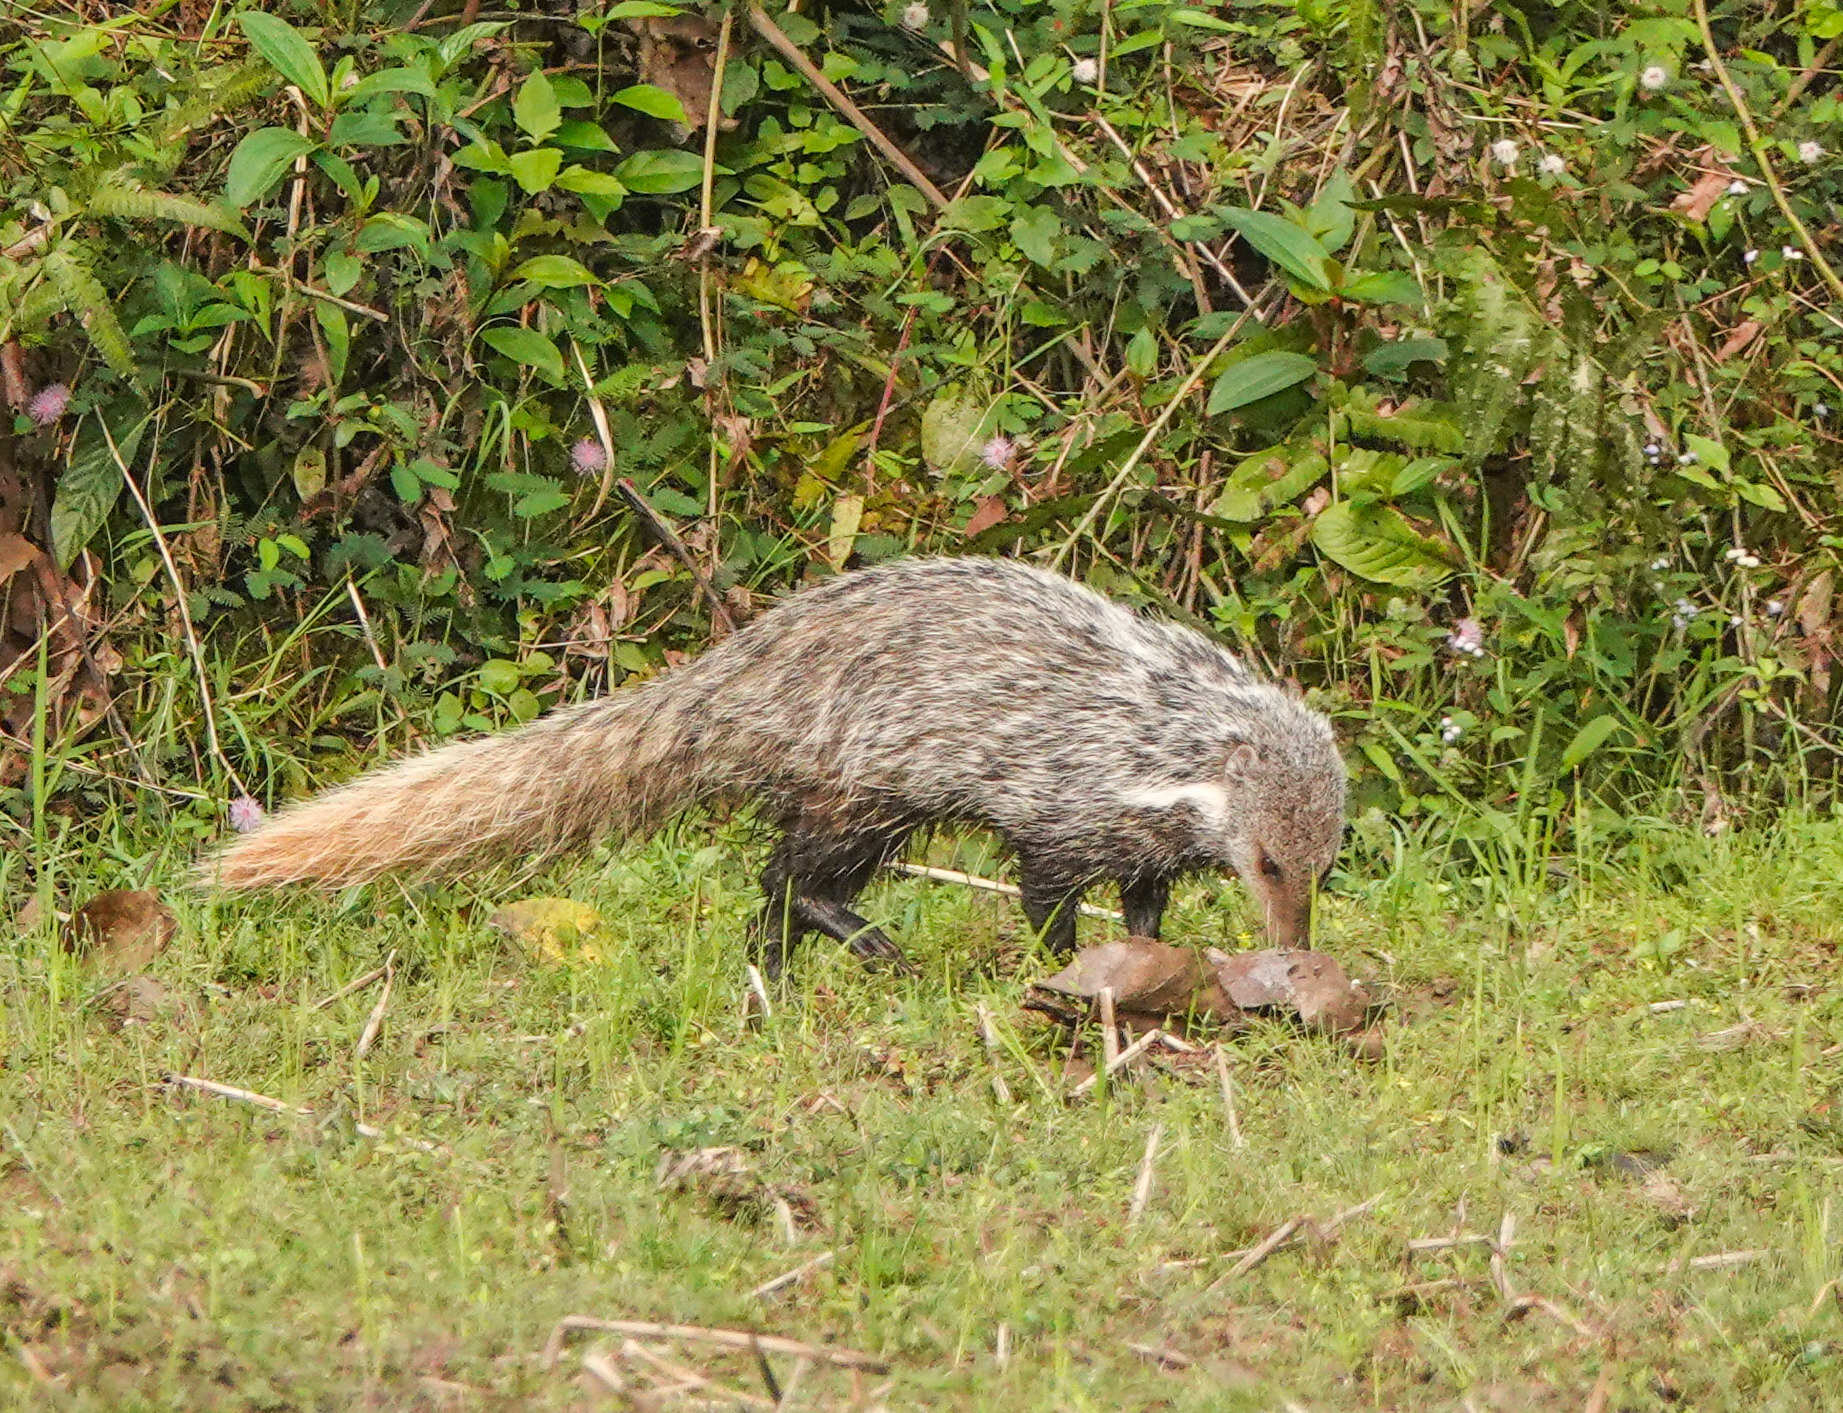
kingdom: Animalia
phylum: Chordata
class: Mammalia
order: Carnivora
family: Herpestidae
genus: Herpestes
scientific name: Herpestes urva
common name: Crab-eating mongoose
